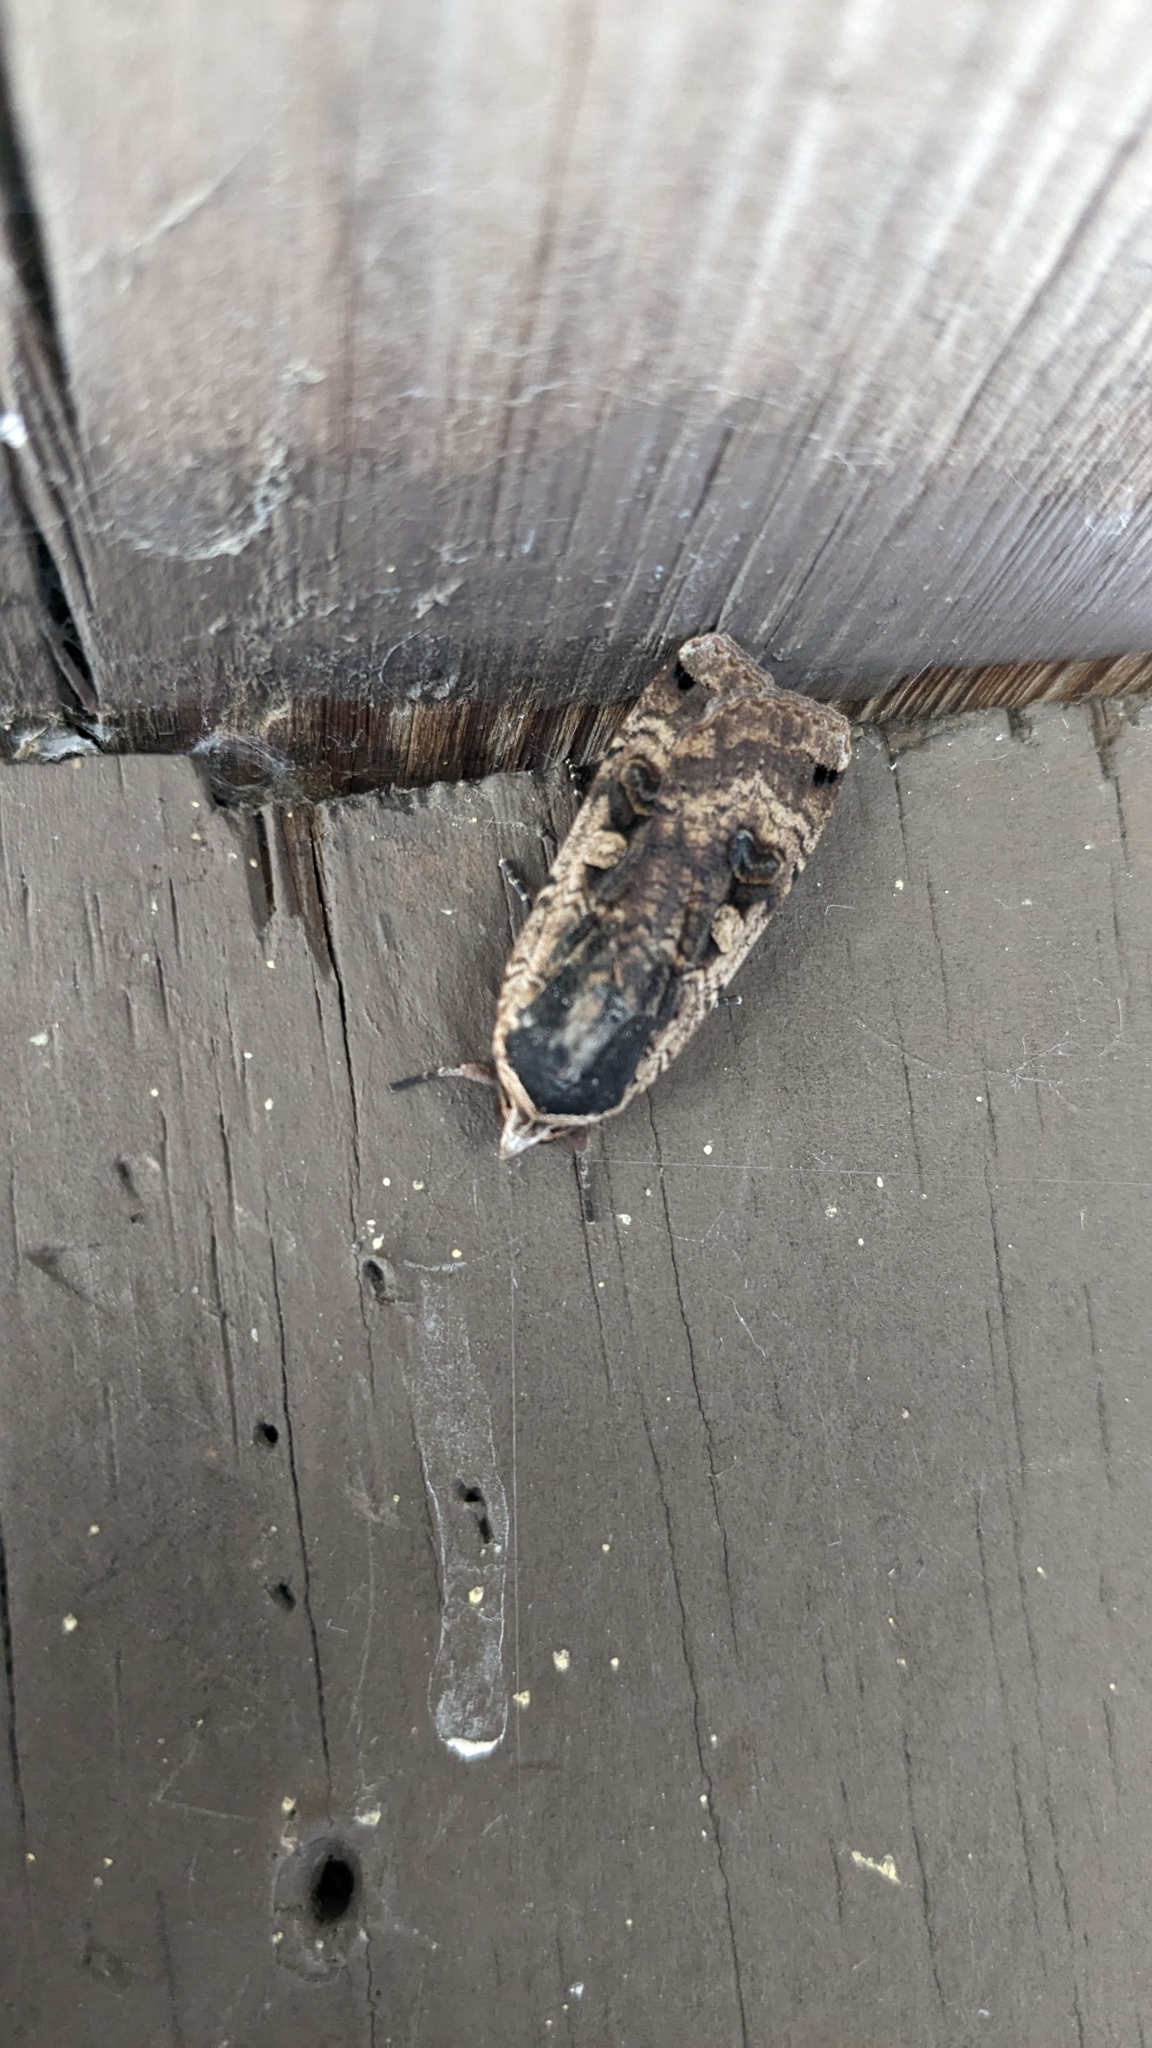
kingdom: Animalia
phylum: Arthropoda
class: Insecta
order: Lepidoptera
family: Noctuidae
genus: Noctua
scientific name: Noctua pronuba
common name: Large yellow underwing
